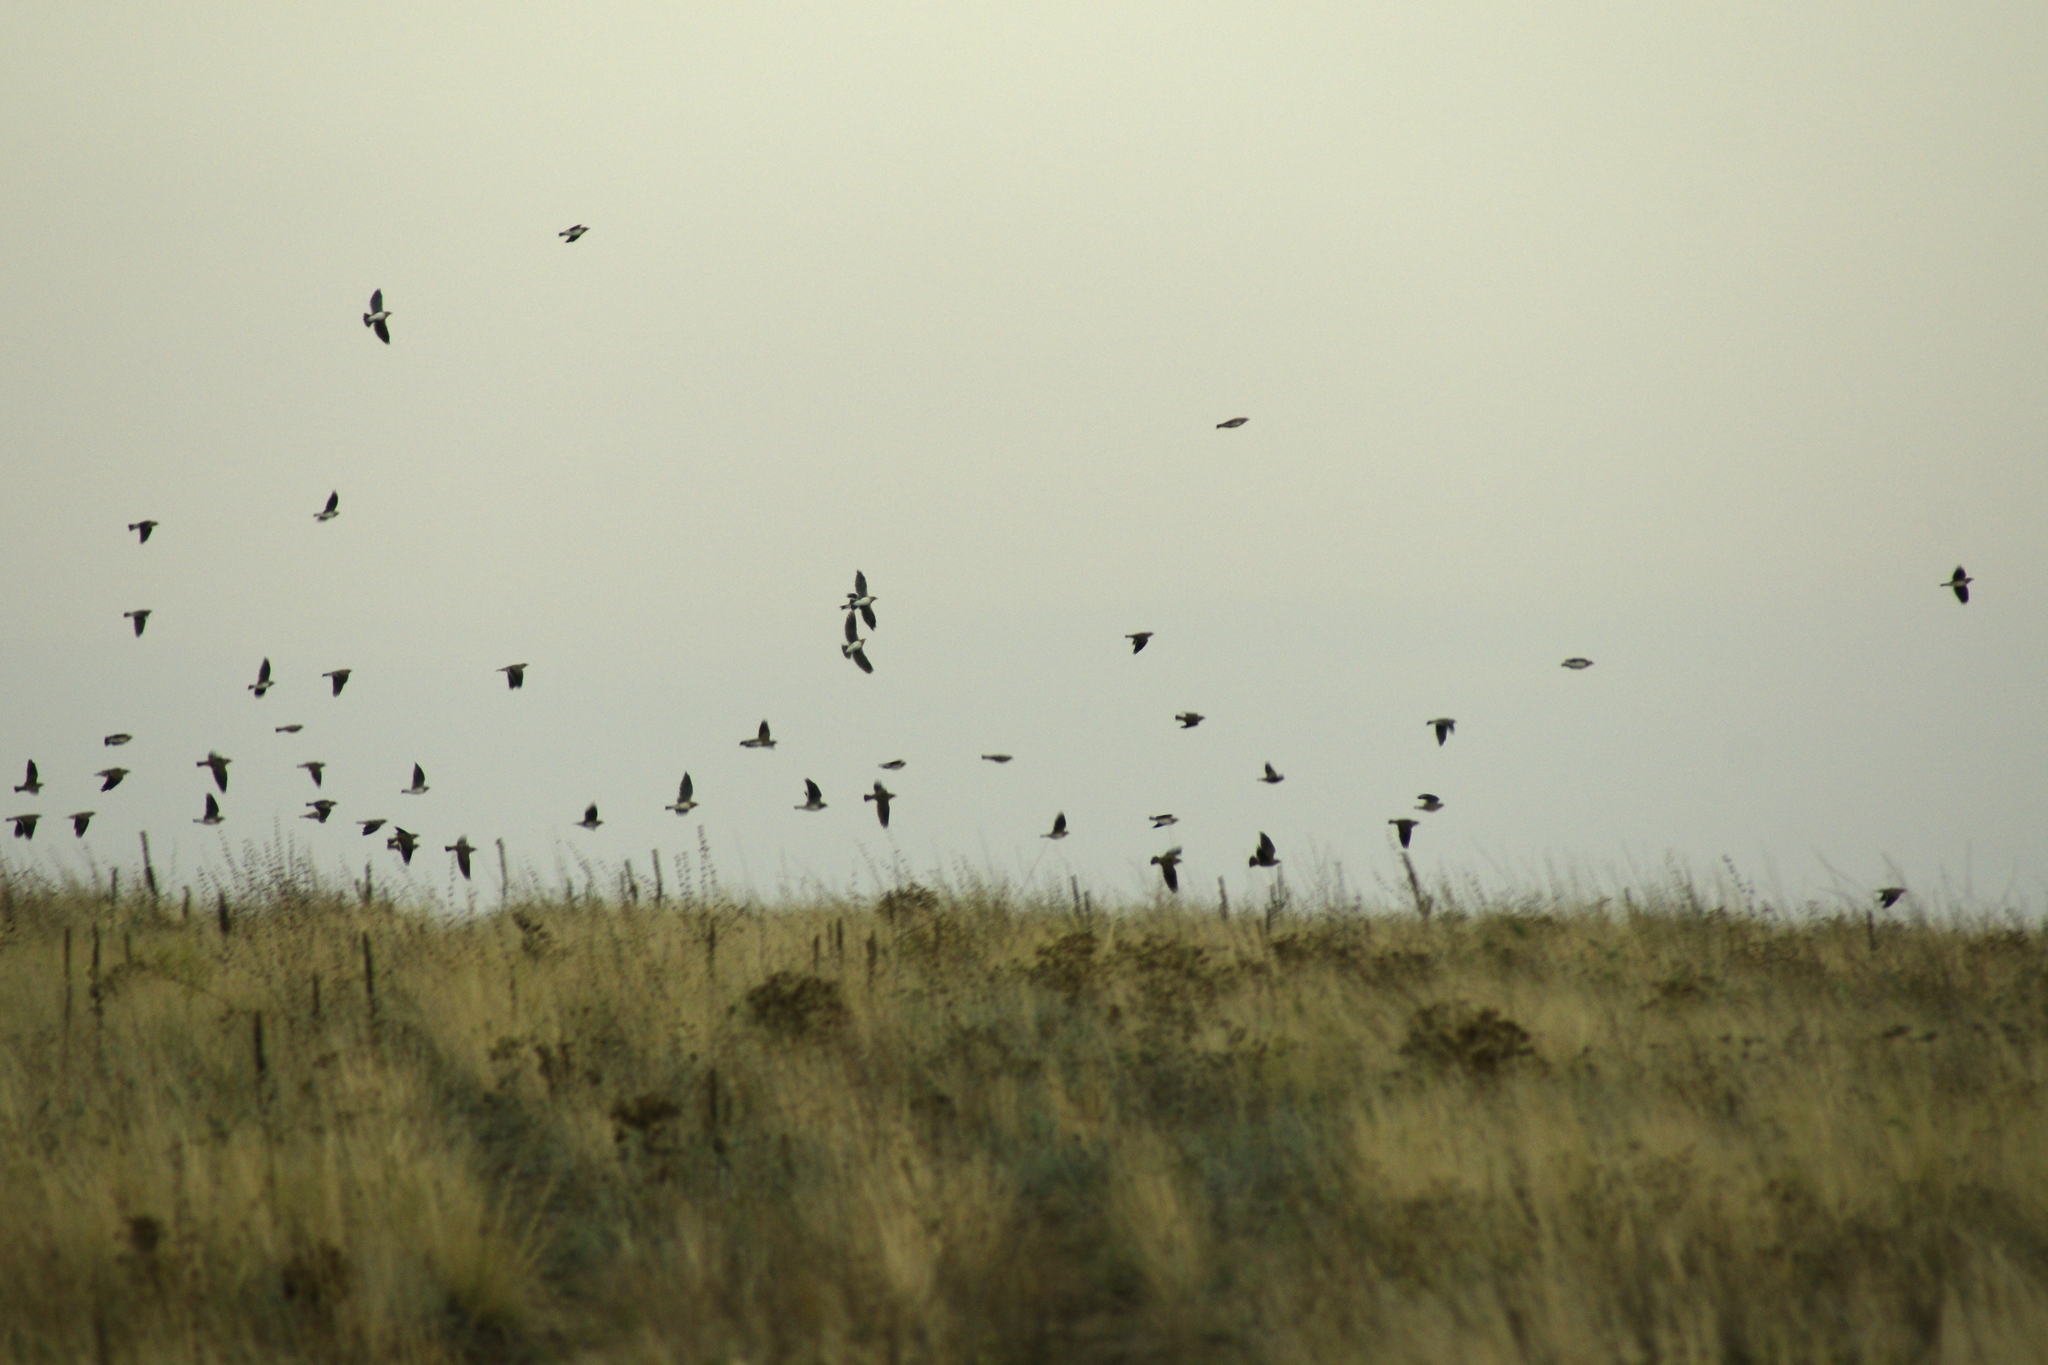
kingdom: Animalia
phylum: Chordata
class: Aves
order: Passeriformes
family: Alaudidae
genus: Melanocorypha
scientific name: Melanocorypha calandra
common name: Calandra lark
